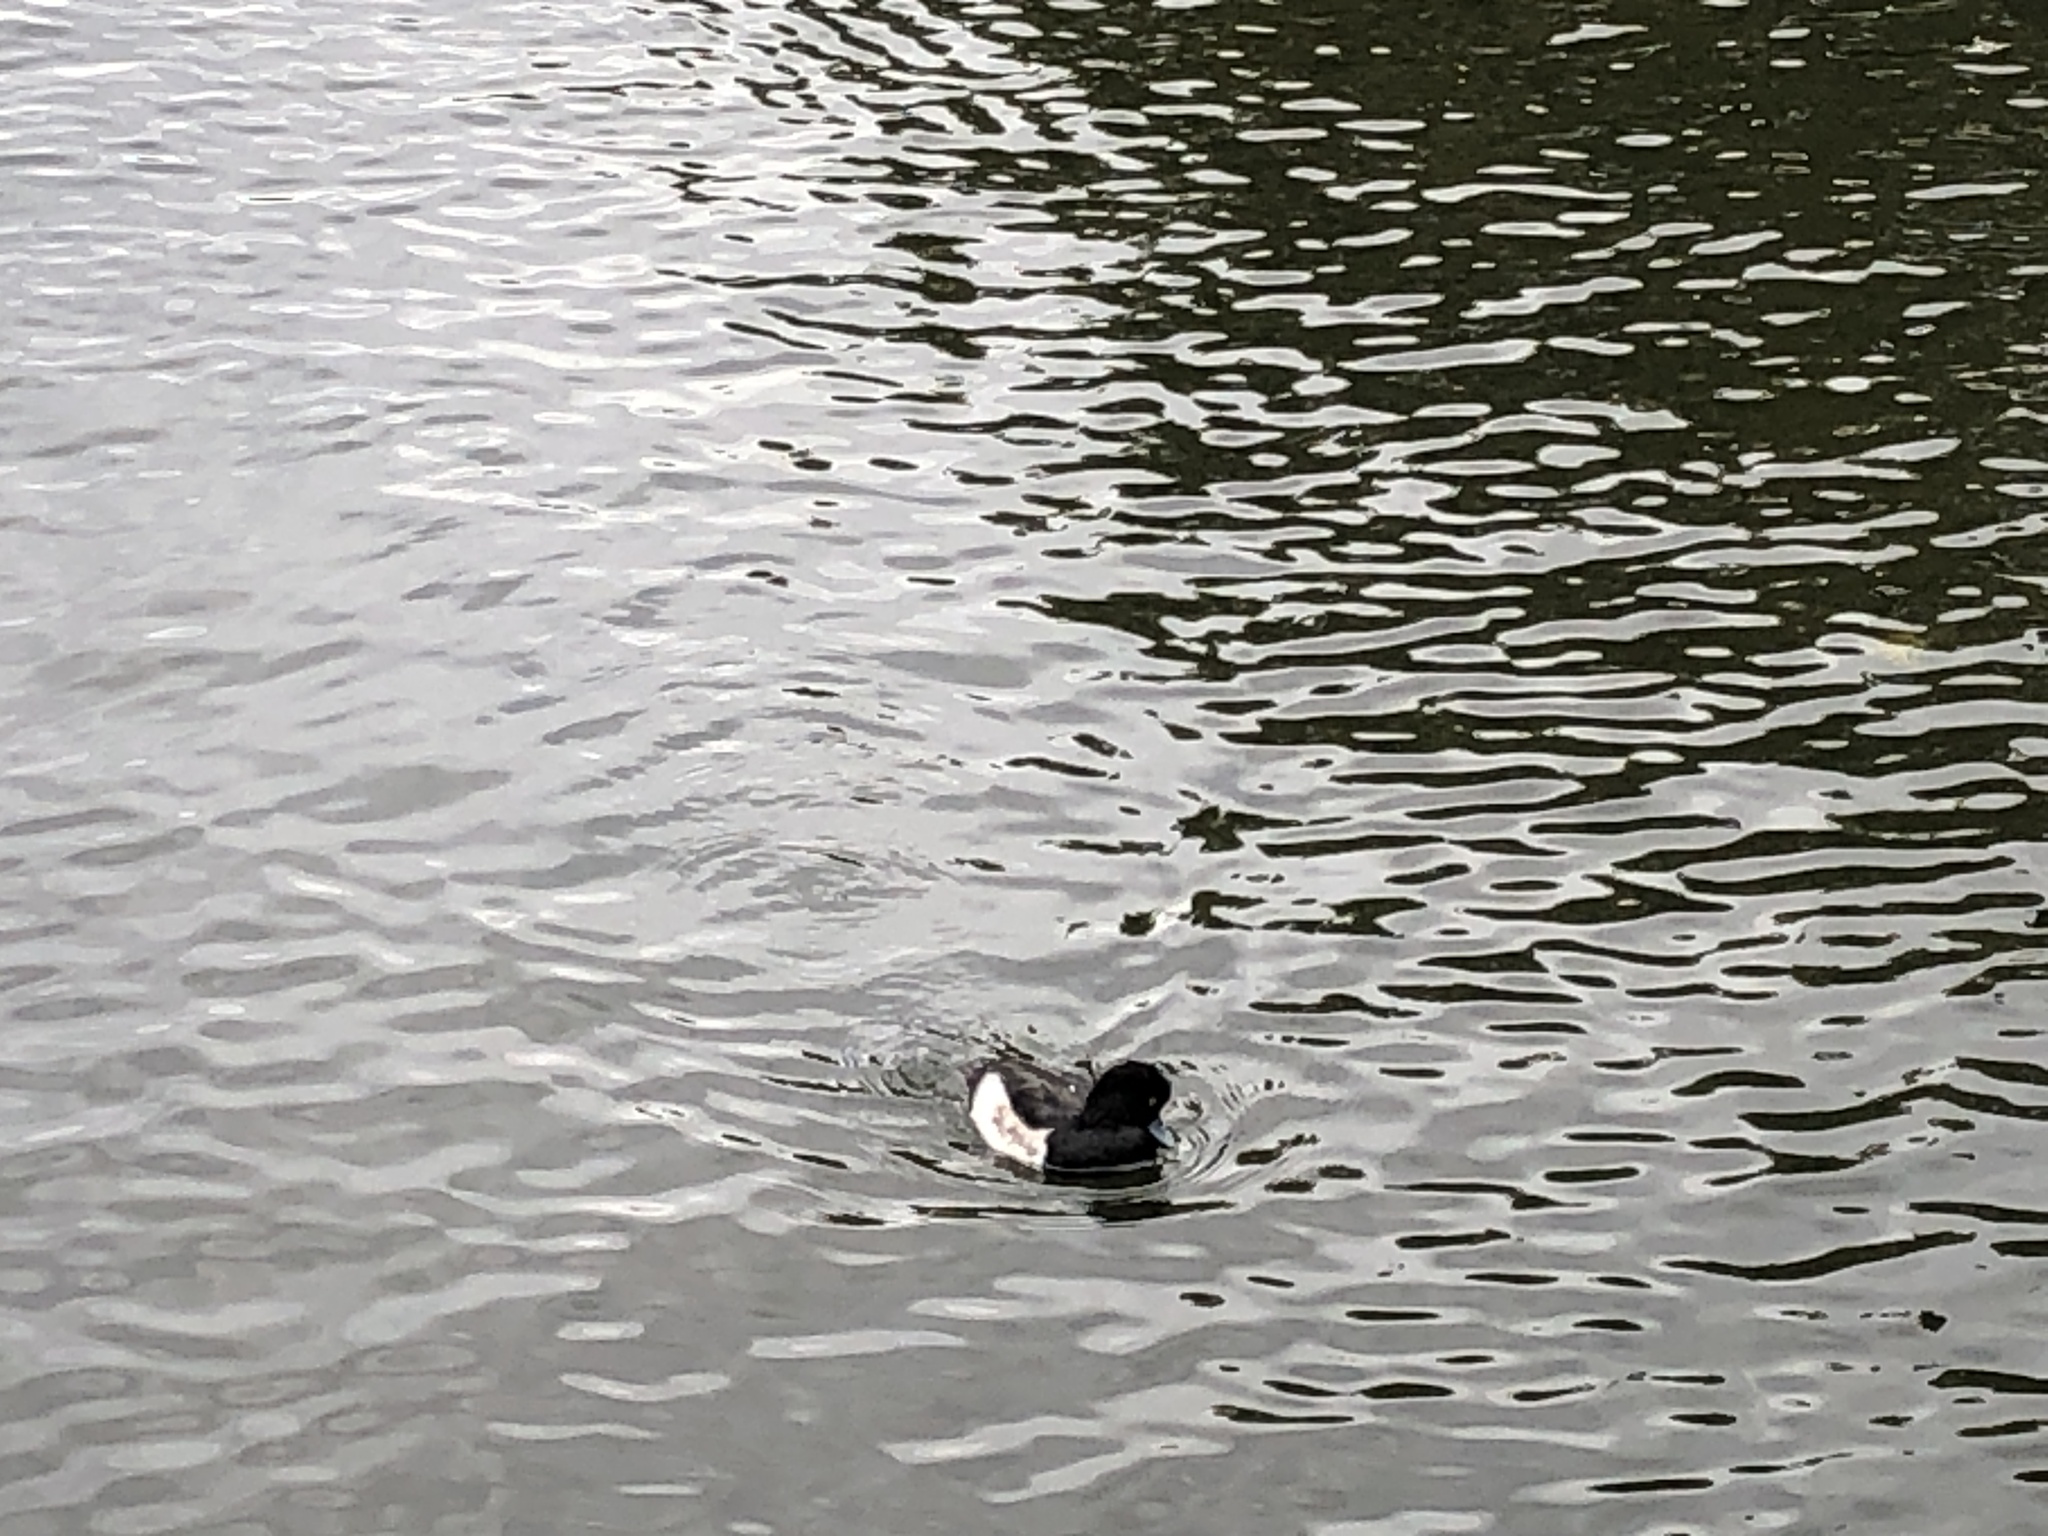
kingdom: Animalia
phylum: Chordata
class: Aves
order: Anseriformes
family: Anatidae
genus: Aythya
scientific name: Aythya fuligula
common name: Tufted duck
